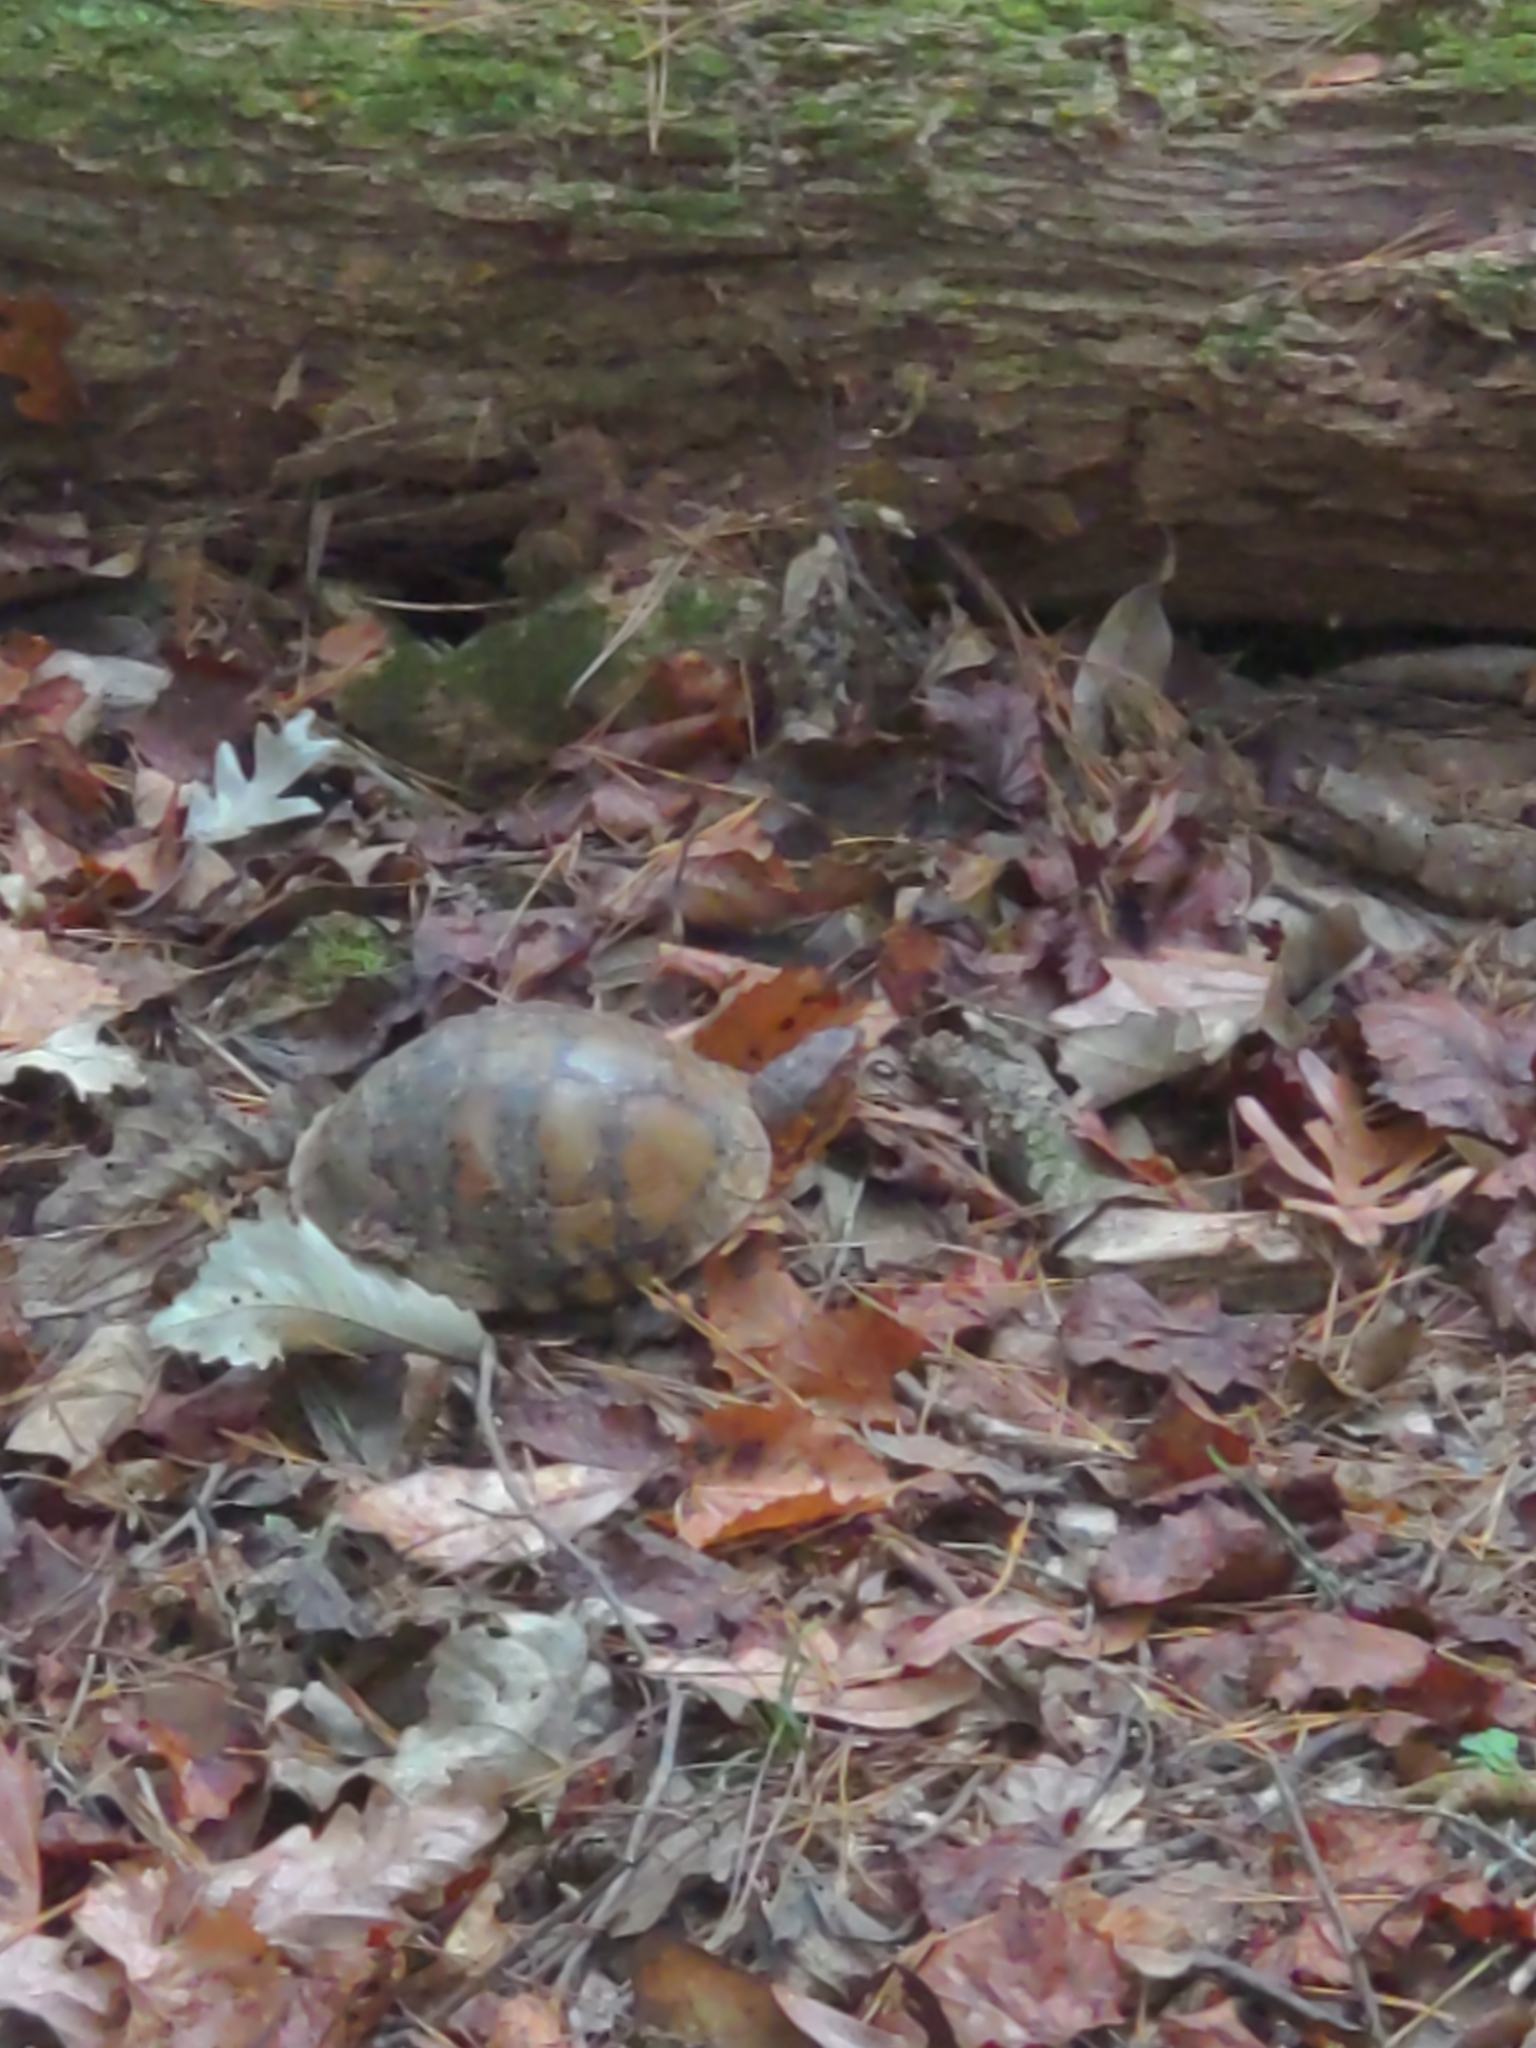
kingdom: Animalia
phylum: Chordata
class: Testudines
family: Emydidae
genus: Terrapene
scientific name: Terrapene carolina
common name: Common box turtle
